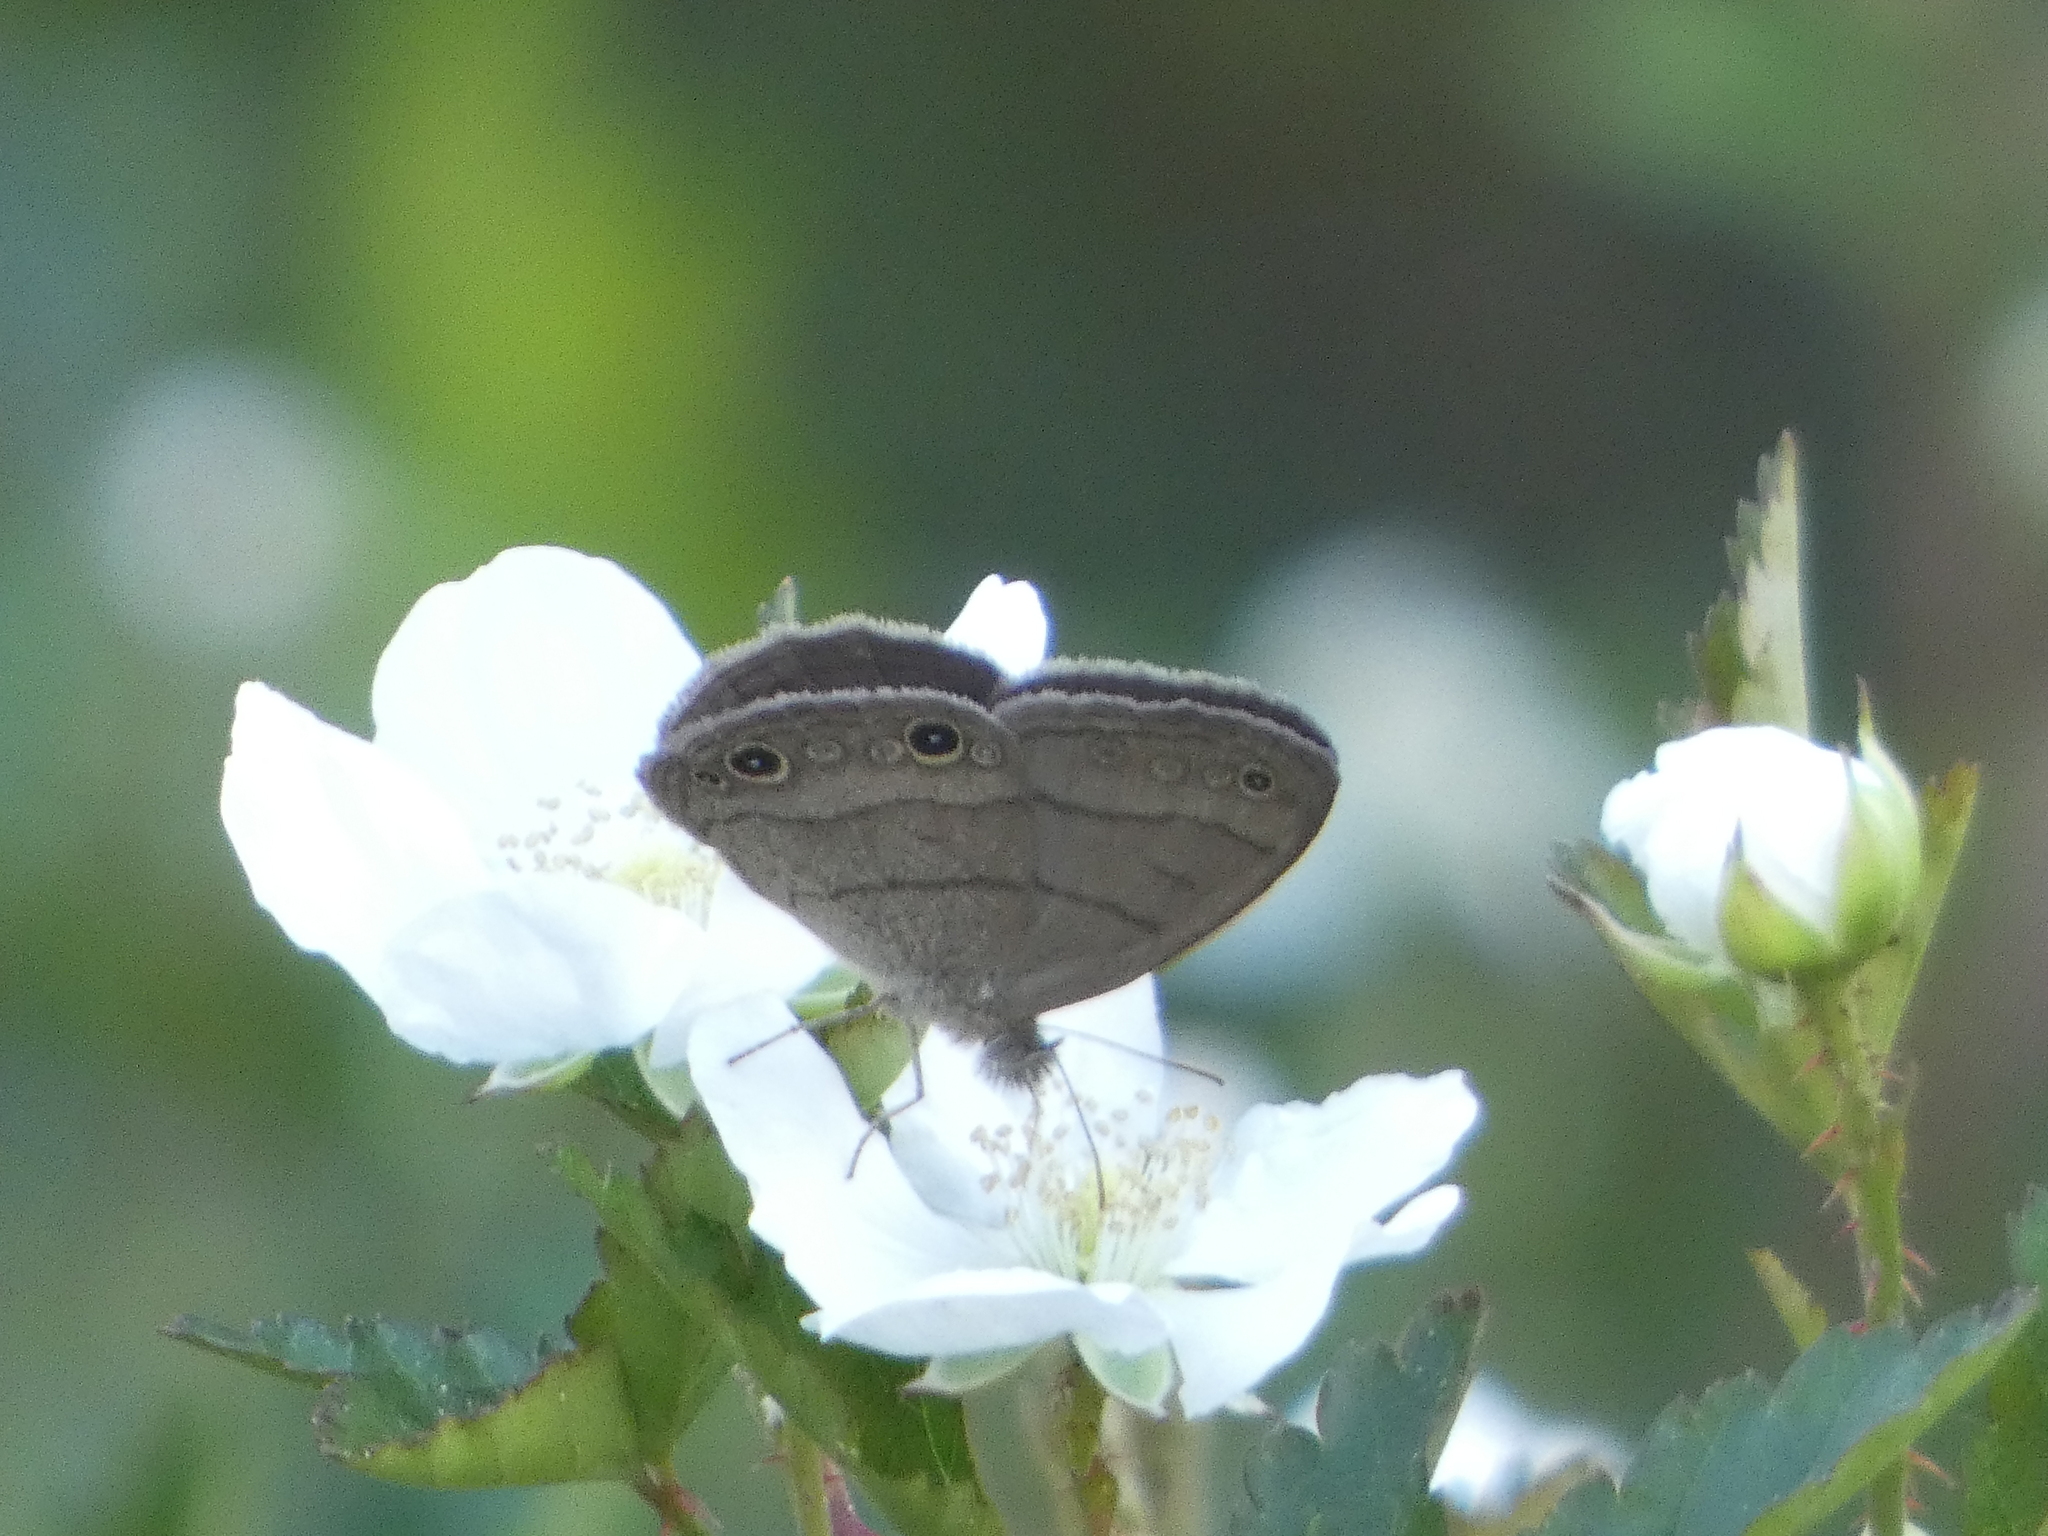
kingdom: Animalia
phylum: Arthropoda
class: Insecta
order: Lepidoptera
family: Nymphalidae
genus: Hermeuptychia
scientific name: Hermeuptychia hermes
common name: Hermes satyr
